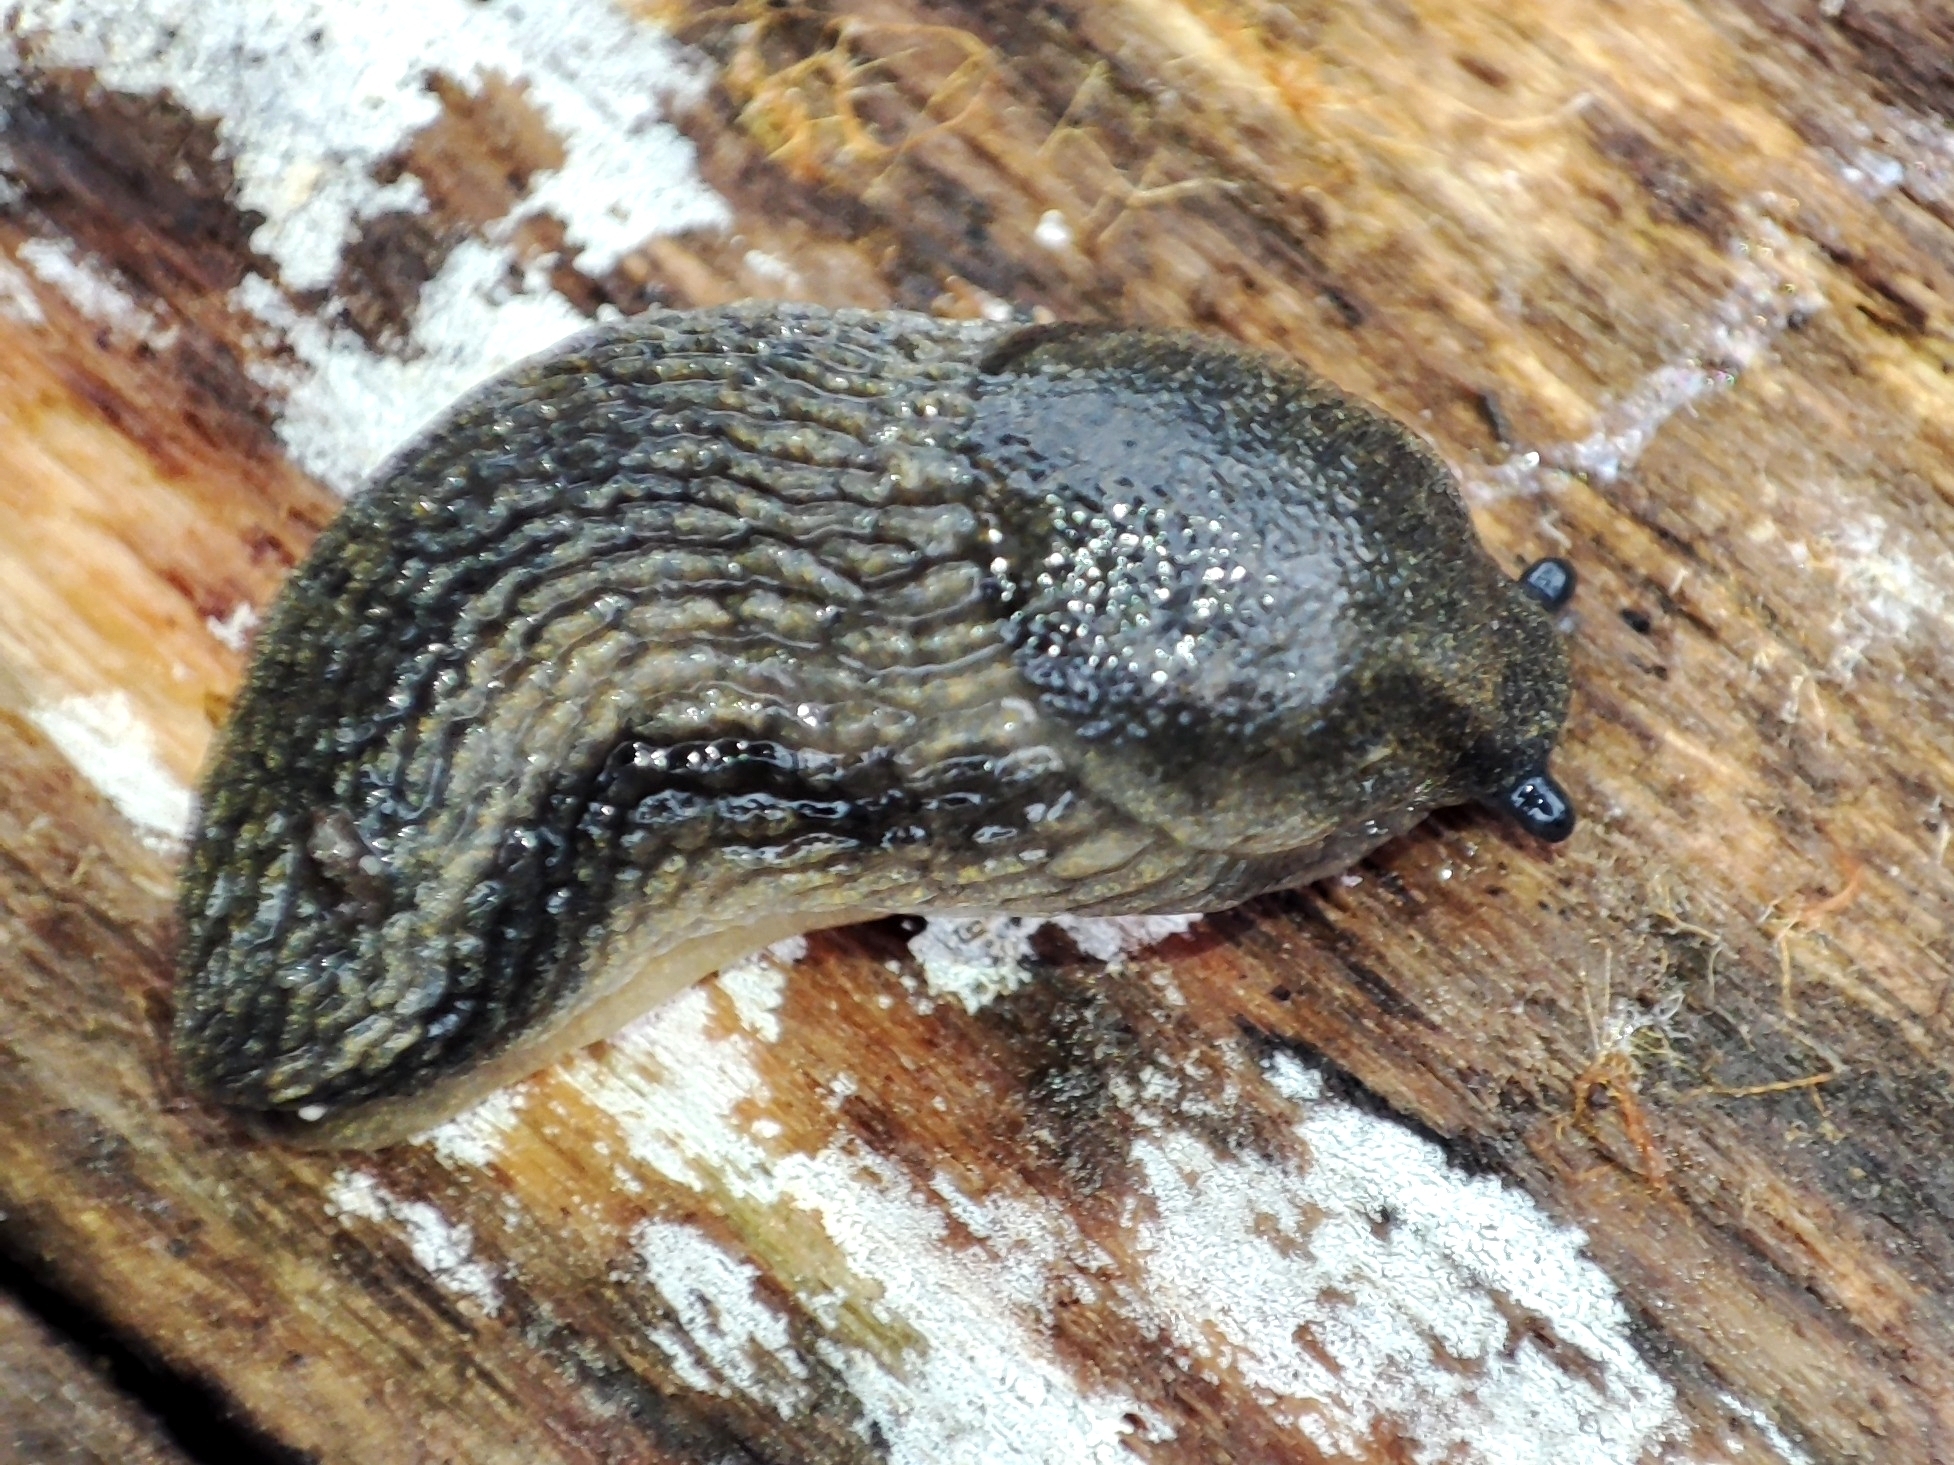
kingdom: Animalia
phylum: Mollusca
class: Gastropoda
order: Stylommatophora
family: Arionidae
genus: Arion
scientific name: Arion distinctus
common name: Darkface arion
